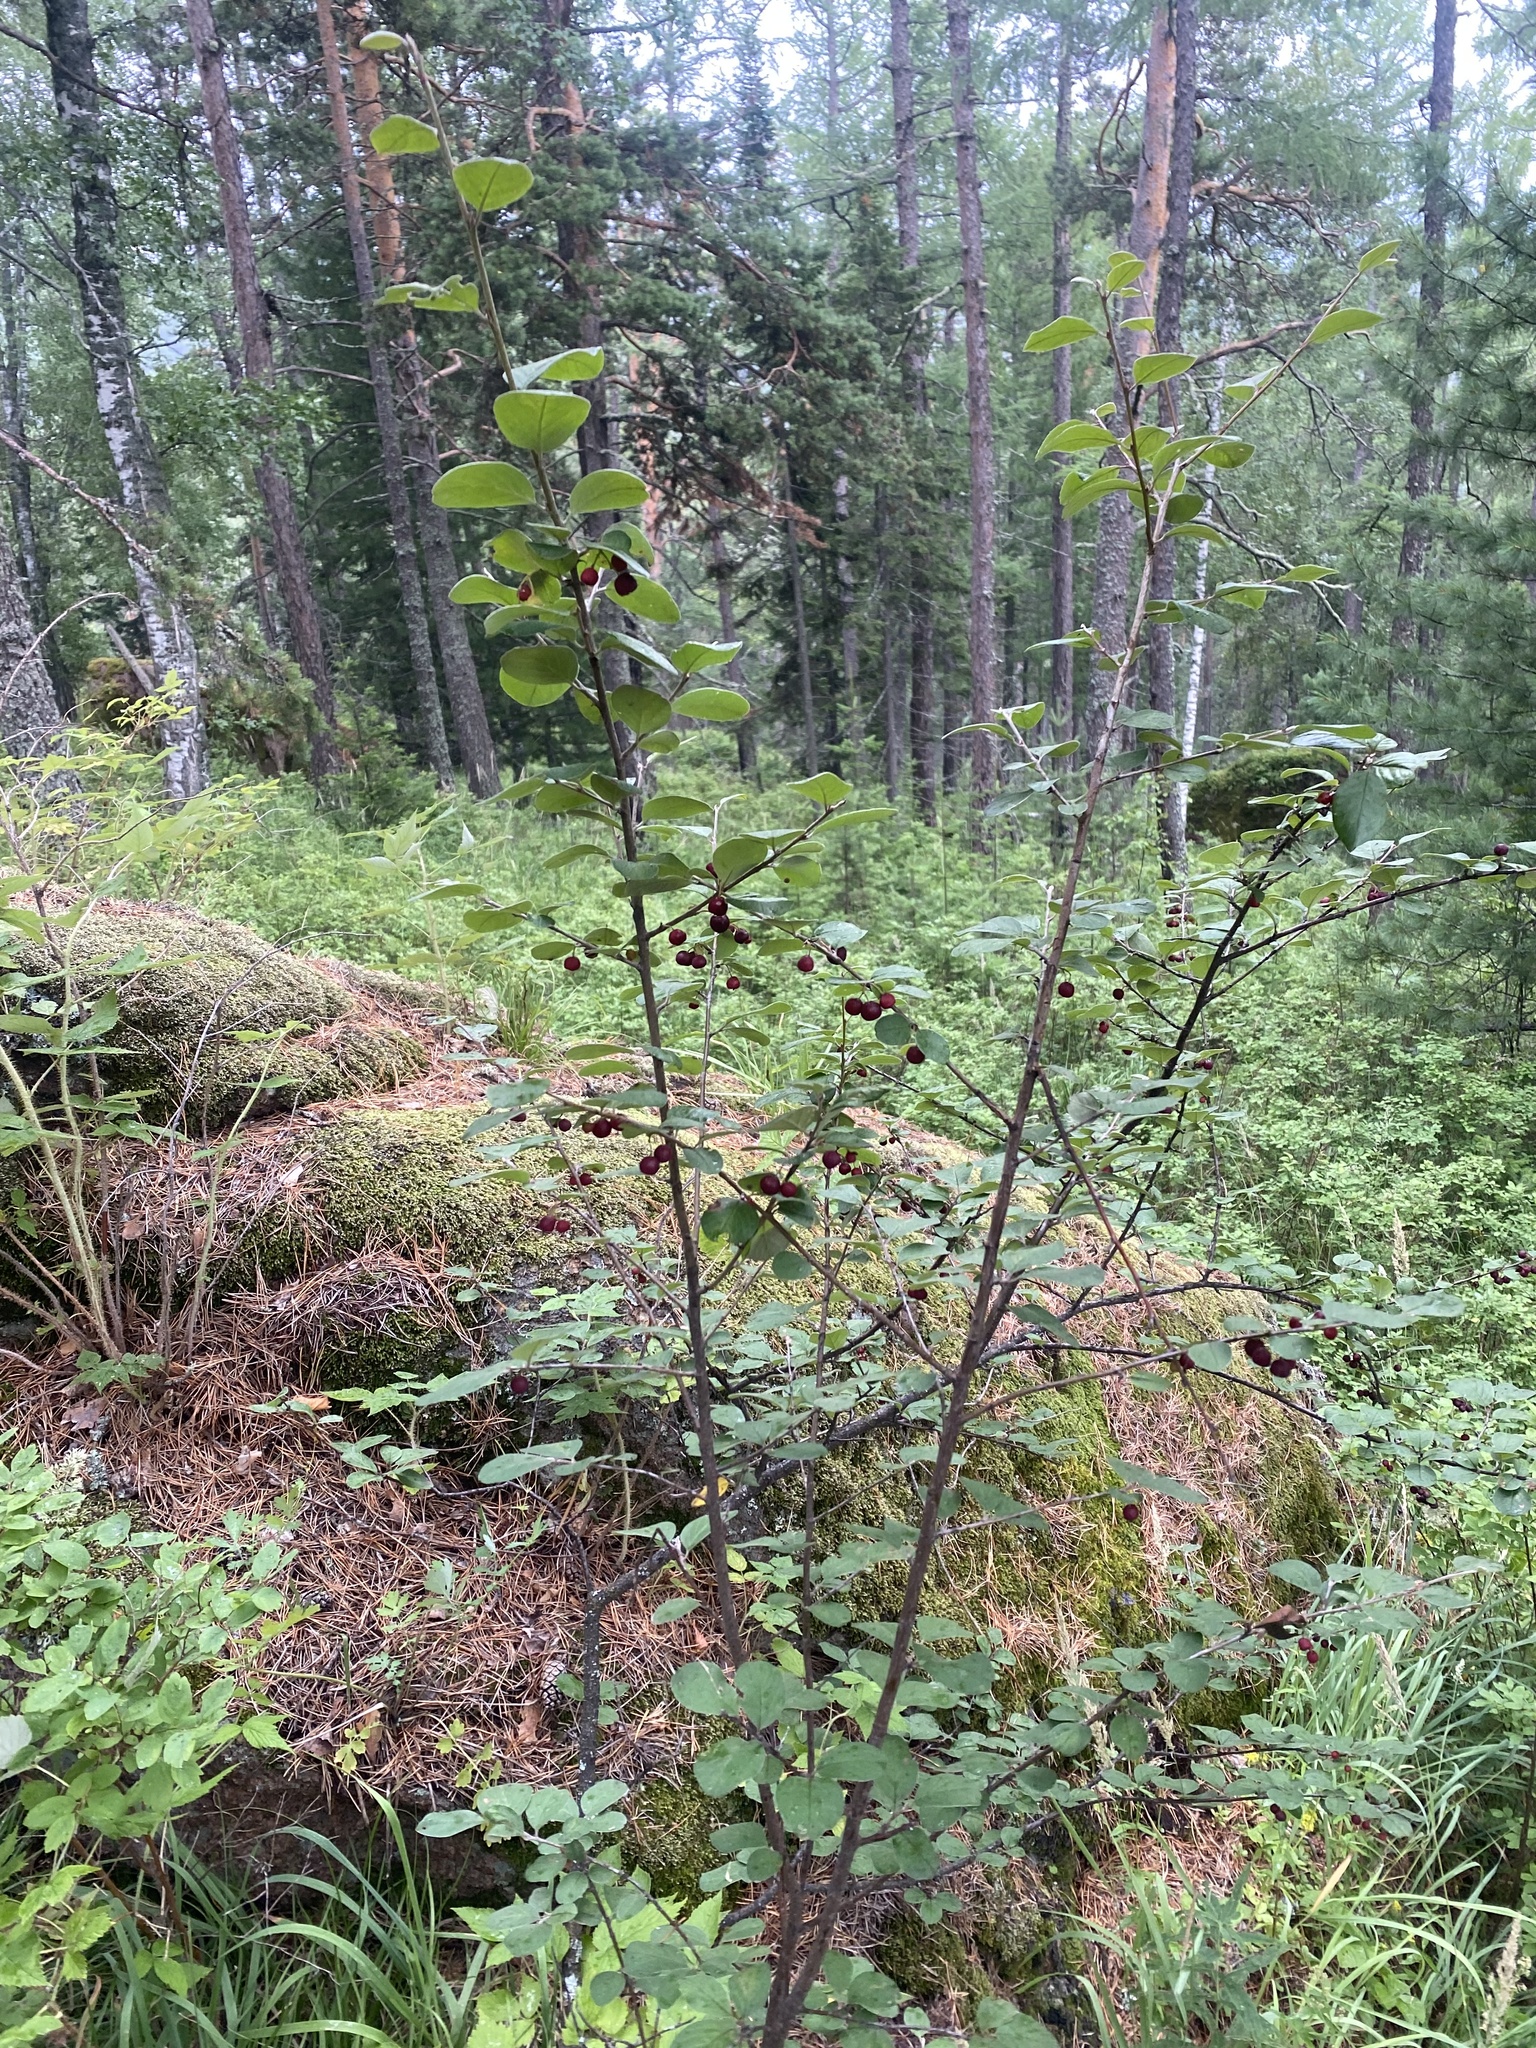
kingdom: Plantae
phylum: Tracheophyta
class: Magnoliopsida
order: Rosales
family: Rosaceae
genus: Cotoneaster
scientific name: Cotoneaster melanocarpus
